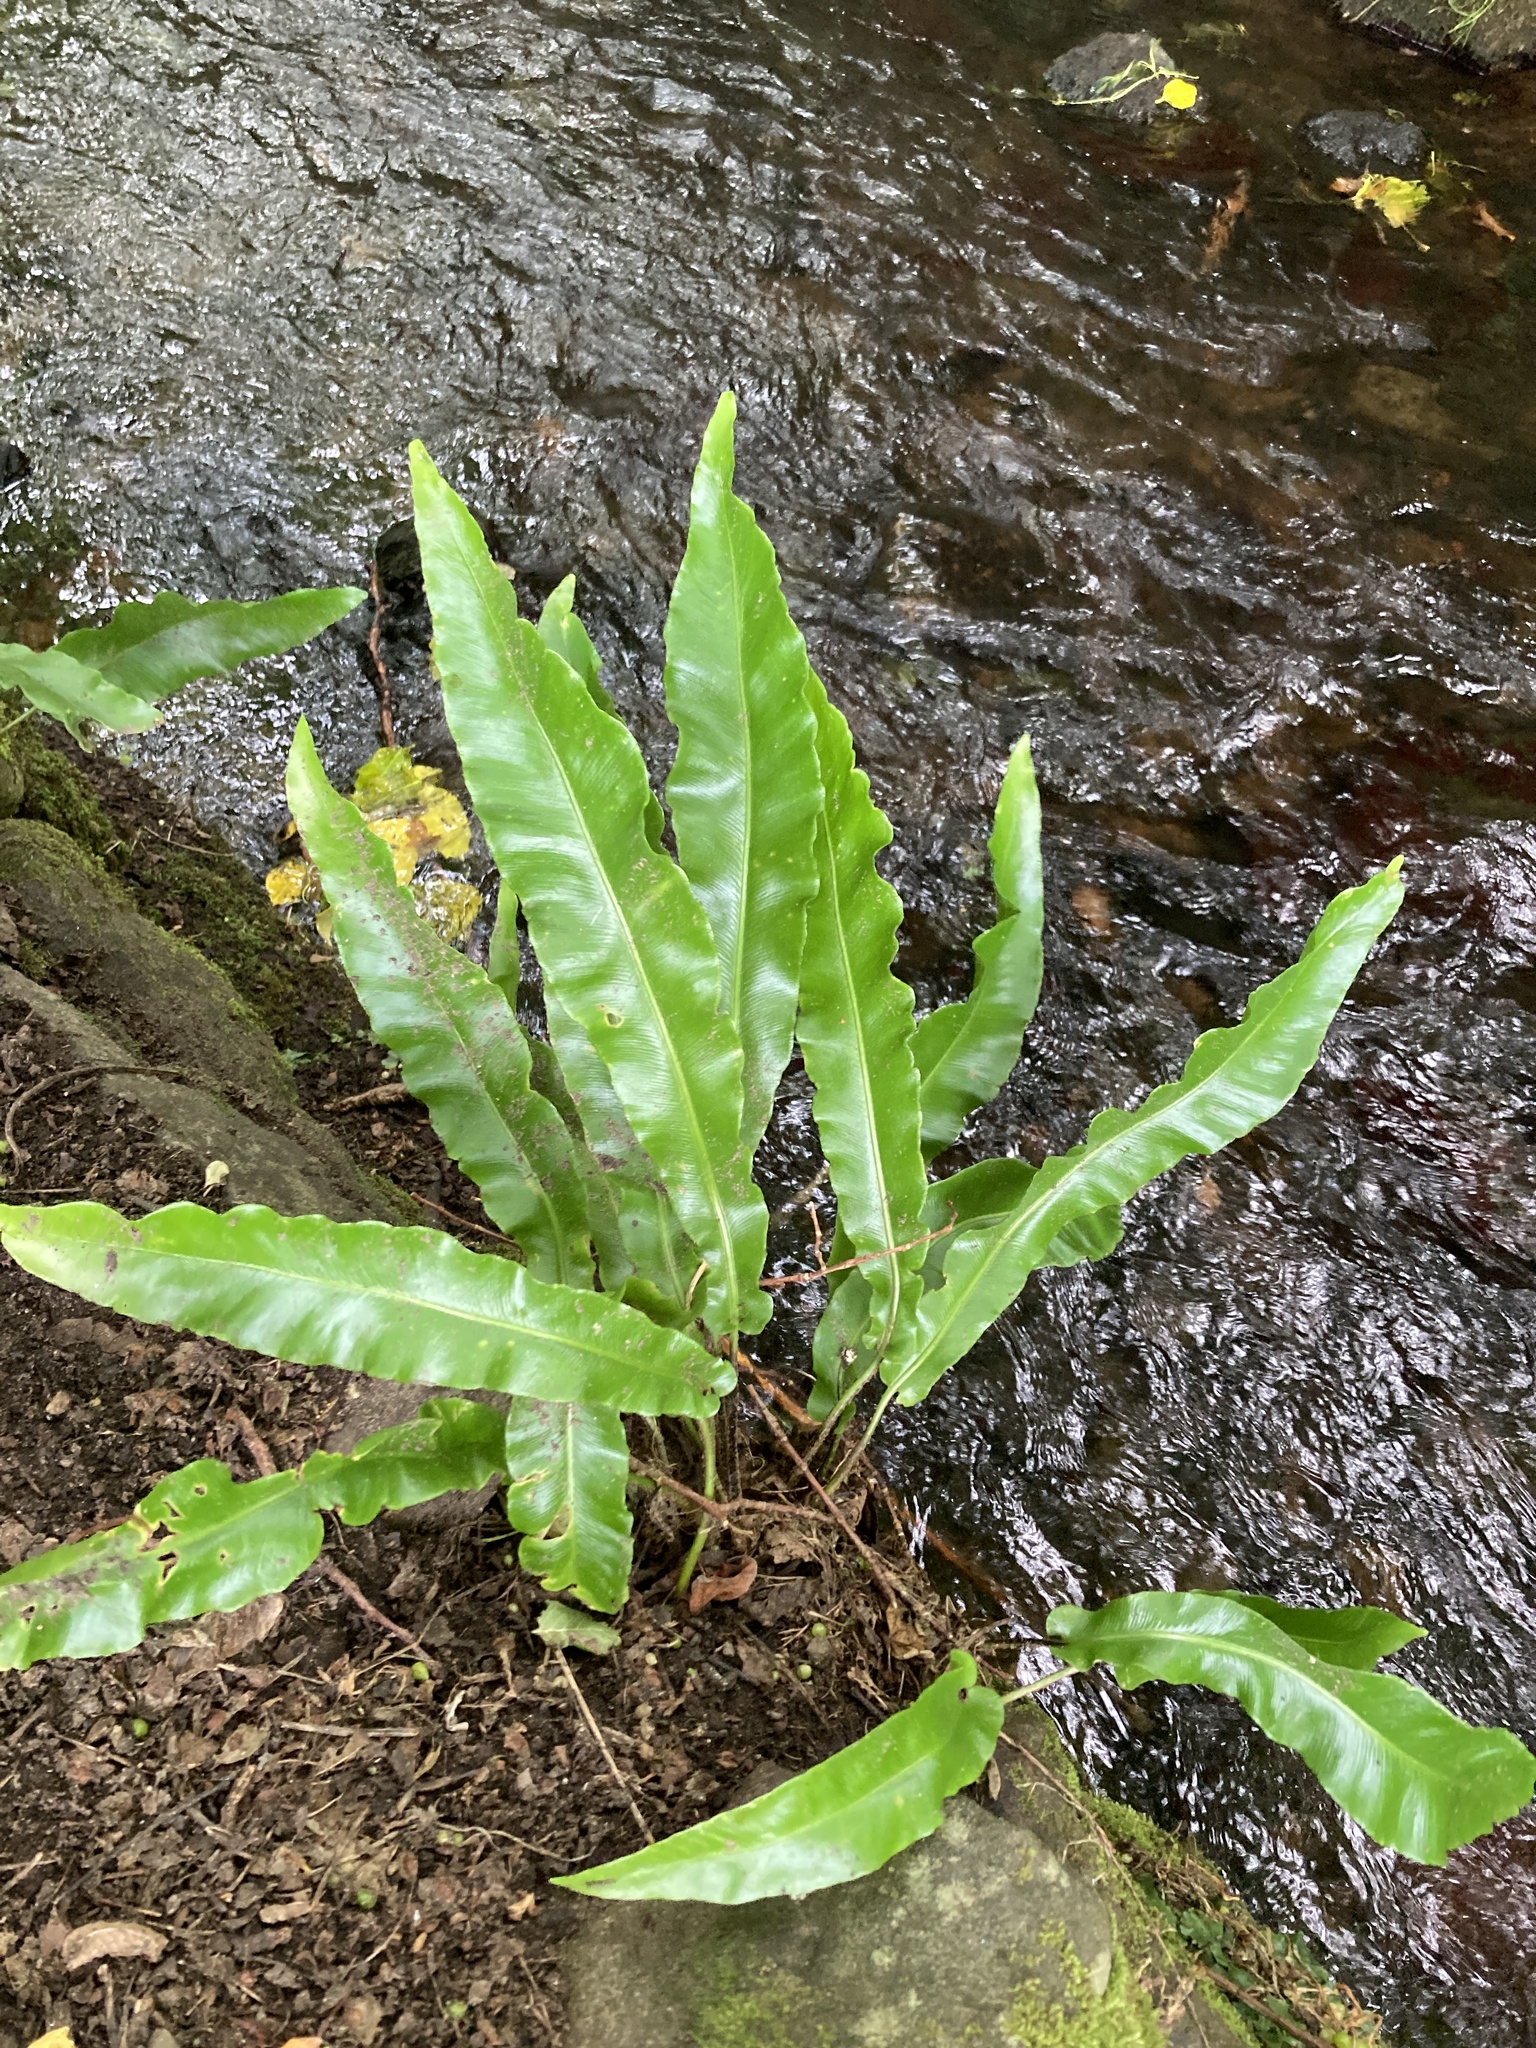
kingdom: Plantae
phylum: Tracheophyta
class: Polypodiopsida
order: Polypodiales
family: Aspleniaceae
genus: Asplenium
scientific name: Asplenium scolopendrium
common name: Hart's-tongue fern
